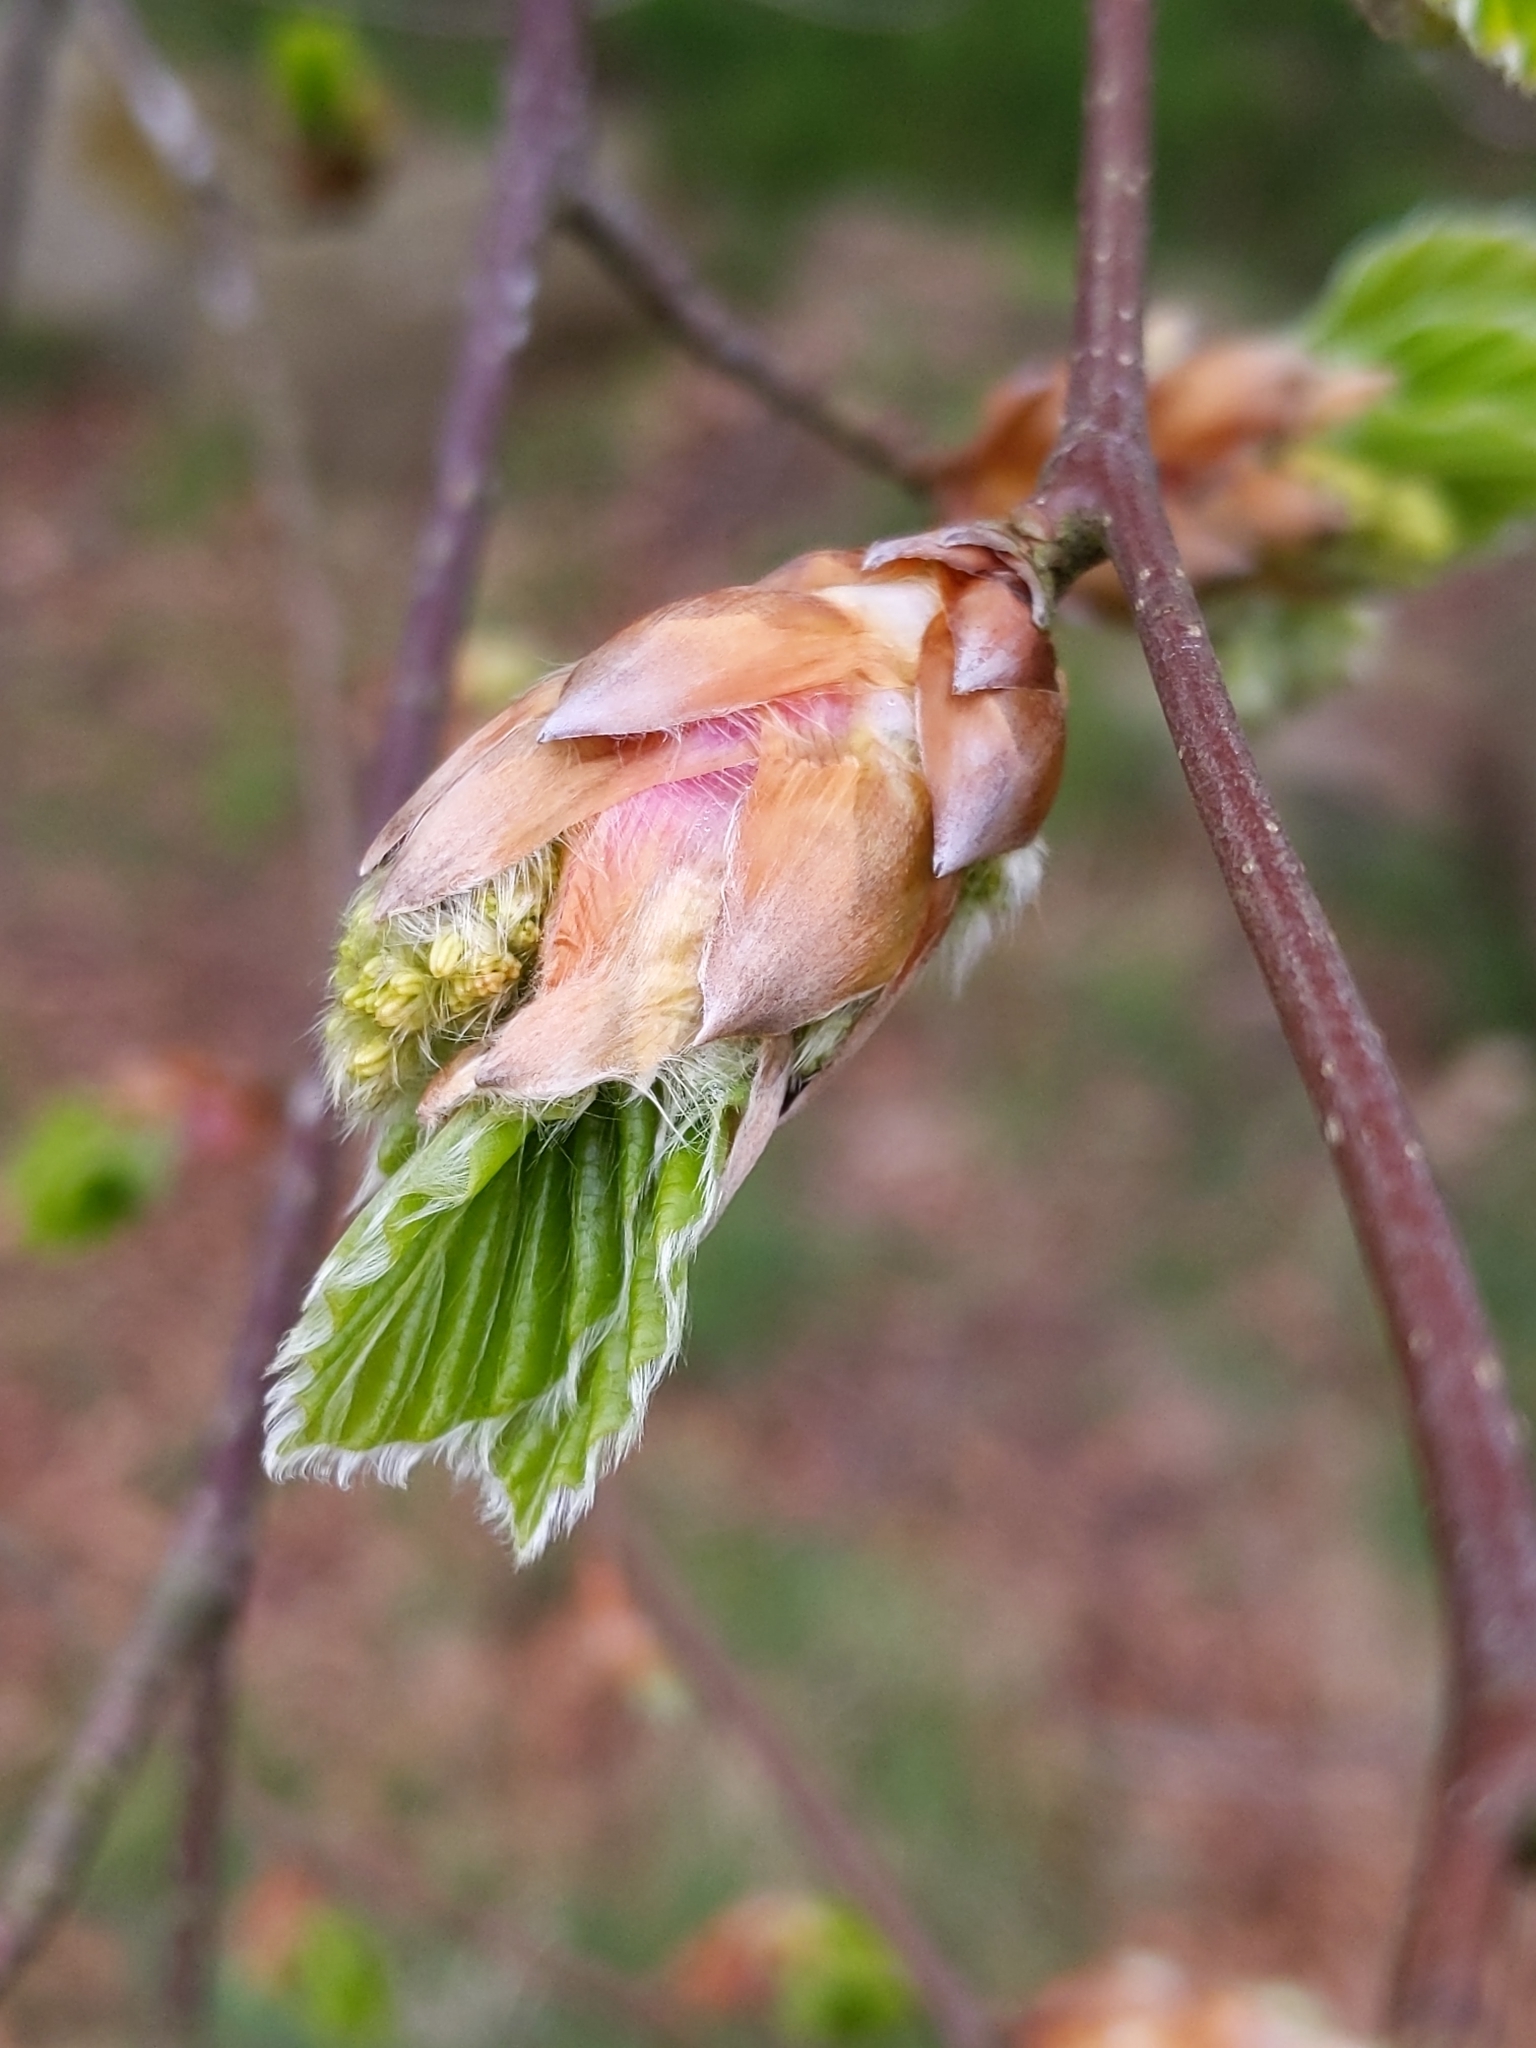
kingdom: Plantae
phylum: Tracheophyta
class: Magnoliopsida
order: Fagales
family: Fagaceae
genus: Fagus
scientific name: Fagus sylvatica
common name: Beech
